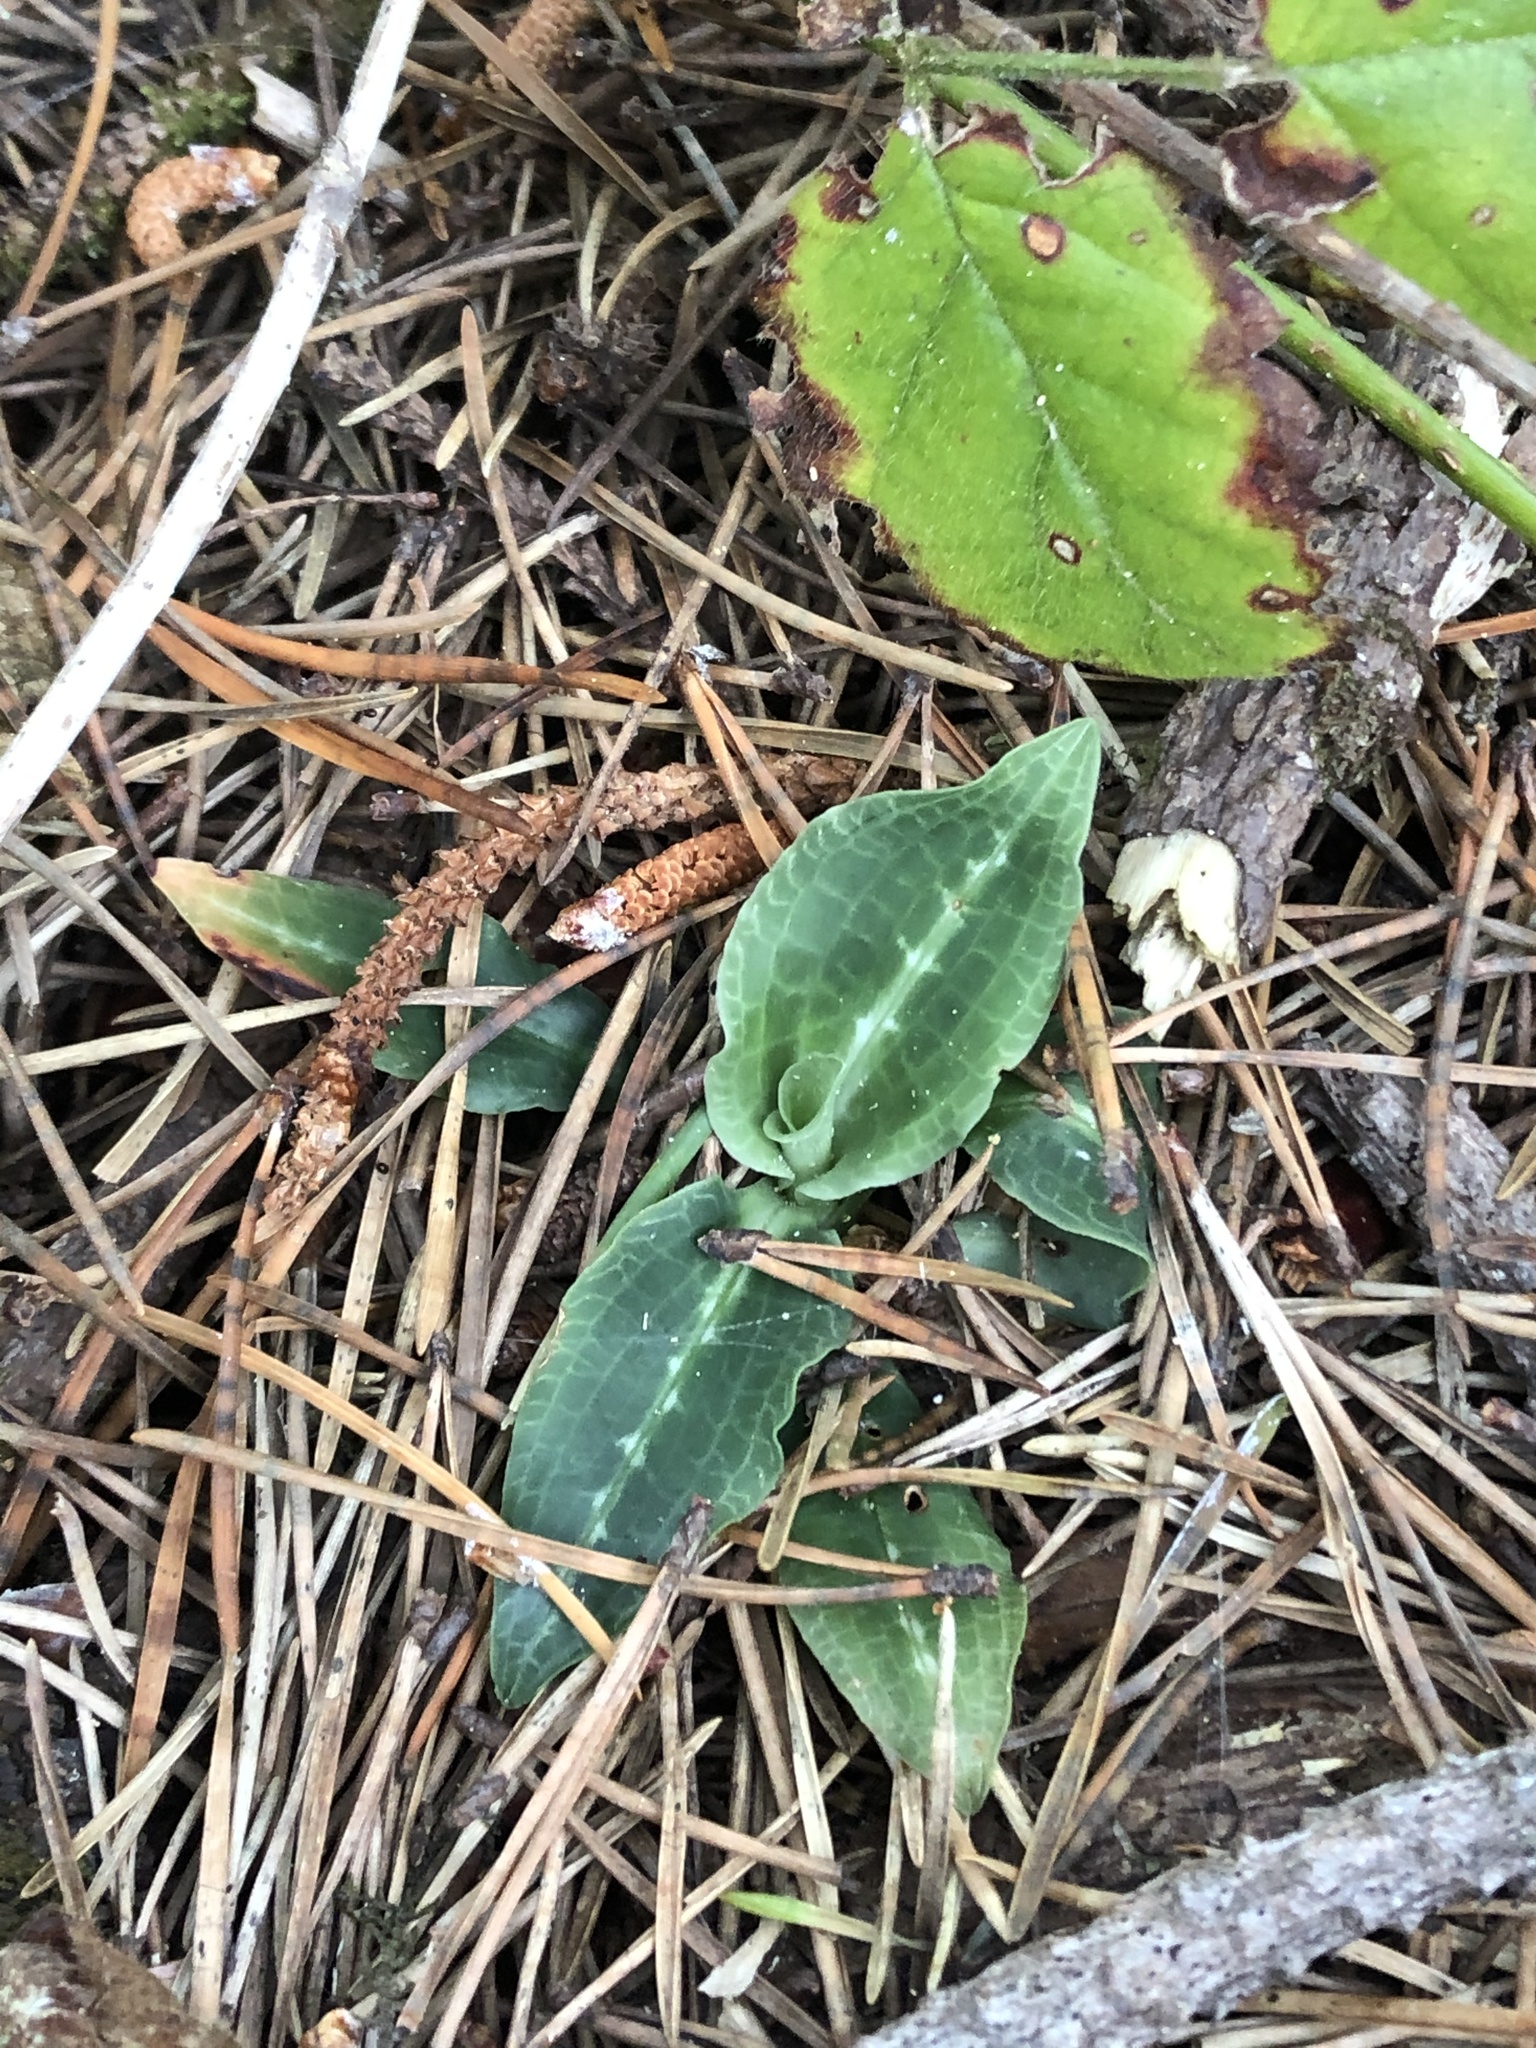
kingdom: Plantae
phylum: Tracheophyta
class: Liliopsida
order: Asparagales
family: Orchidaceae
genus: Goodyera
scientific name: Goodyera oblongifolia
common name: Giant rattlesnake-plantain
